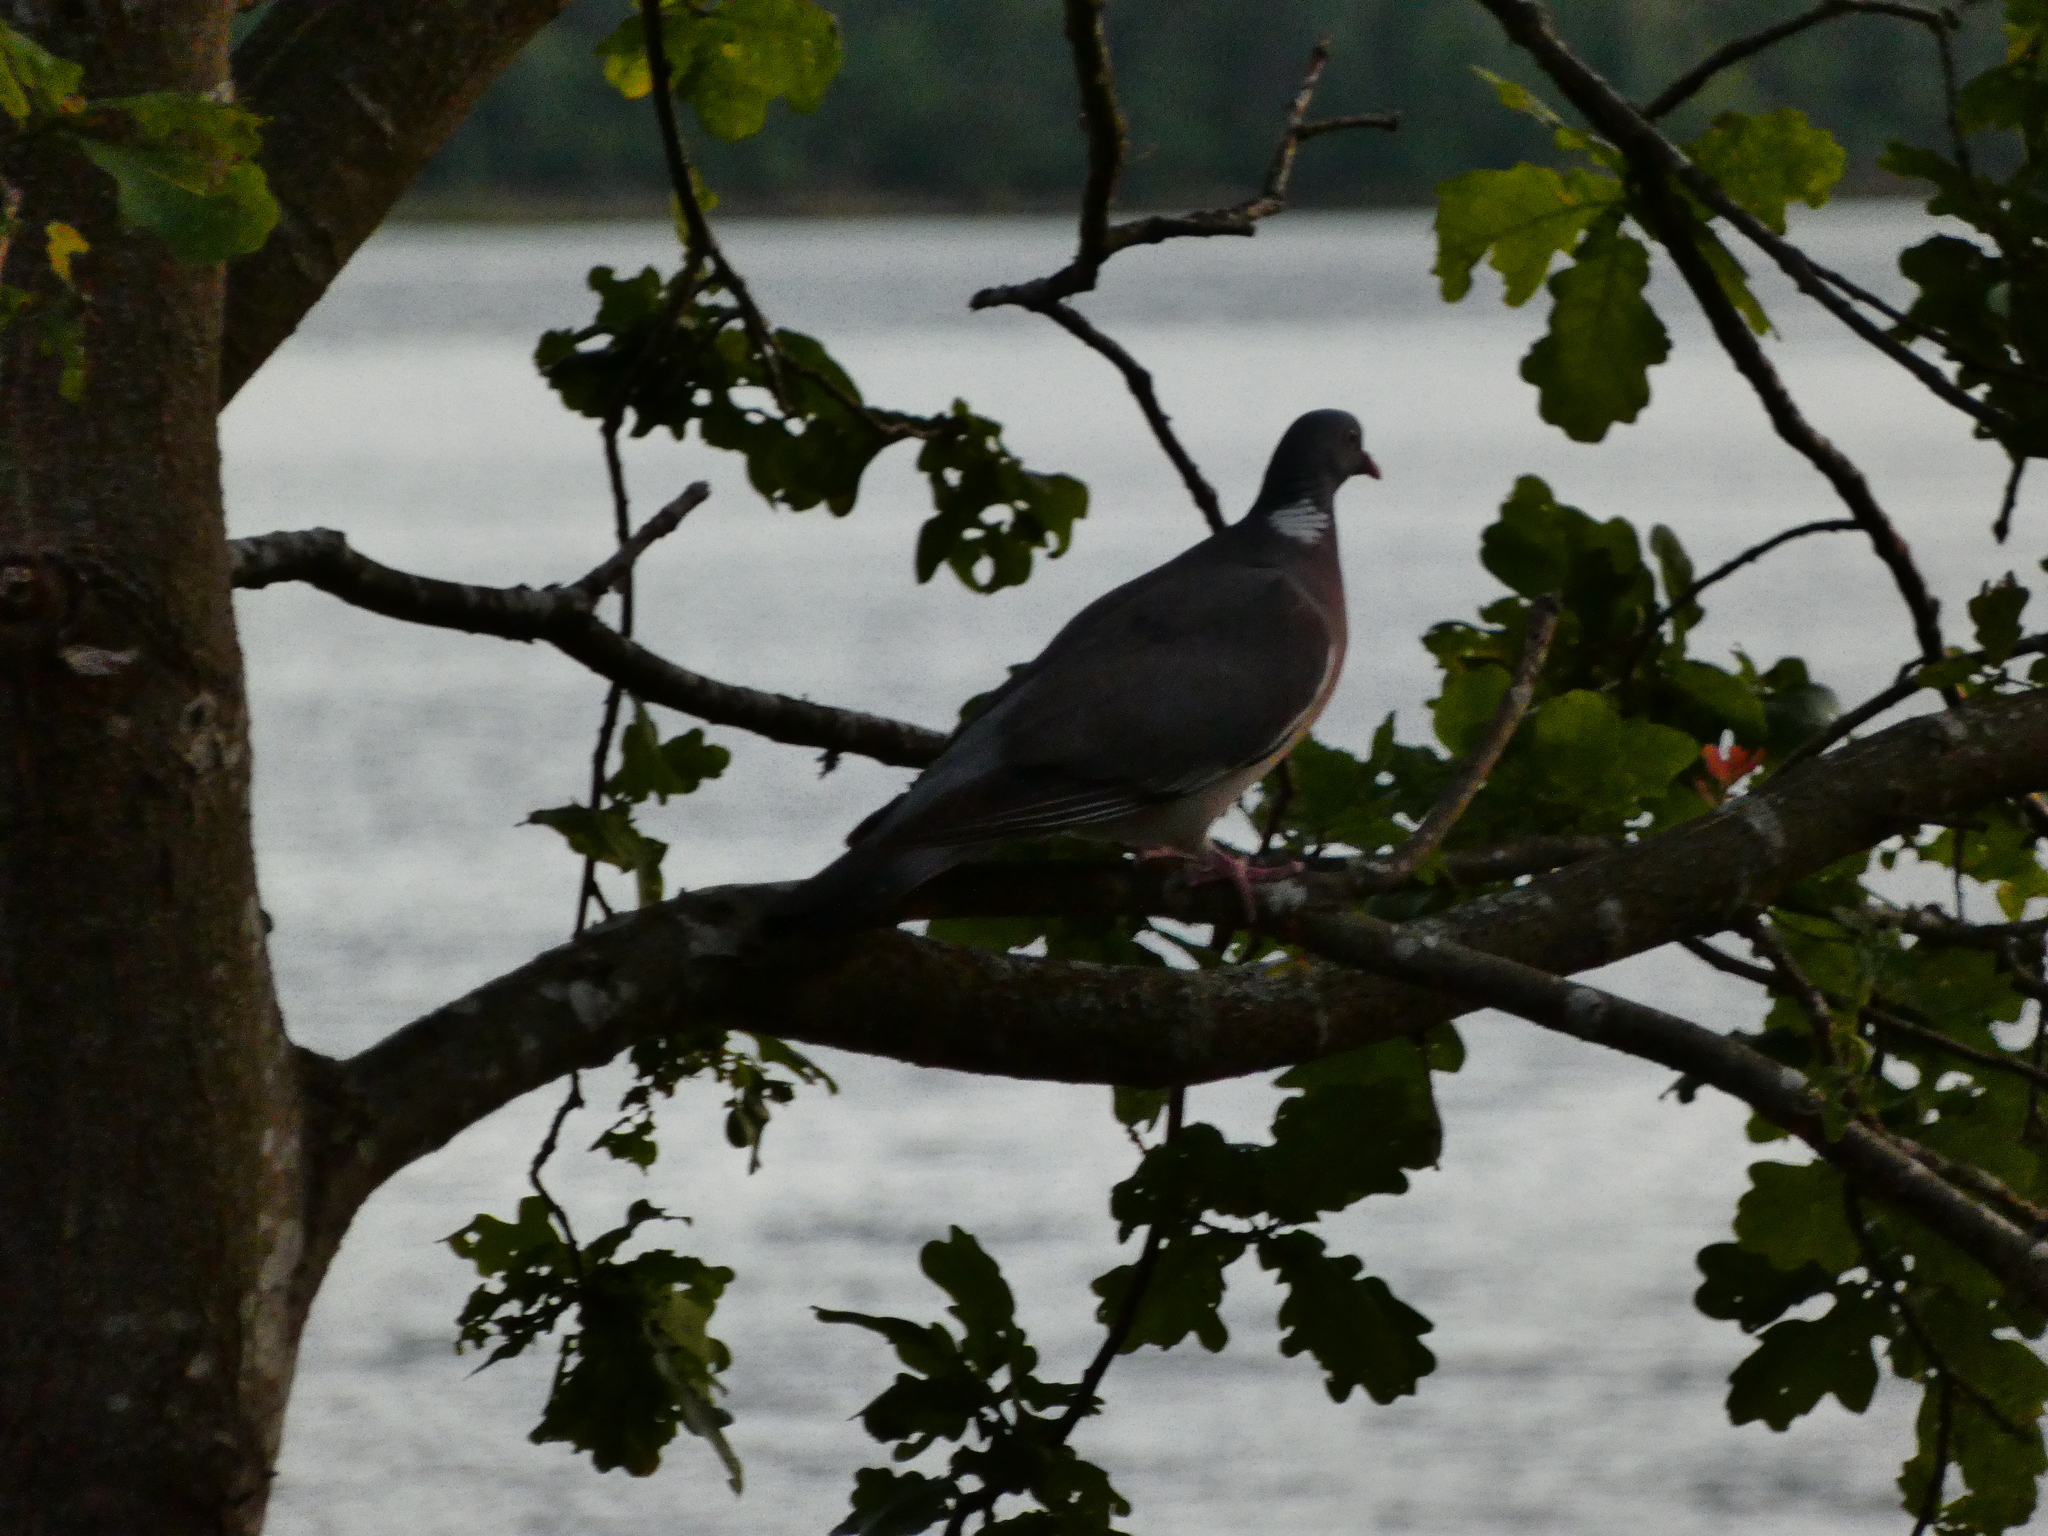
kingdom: Animalia
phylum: Chordata
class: Aves
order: Columbiformes
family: Columbidae
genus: Columba
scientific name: Columba palumbus
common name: Common wood pigeon
